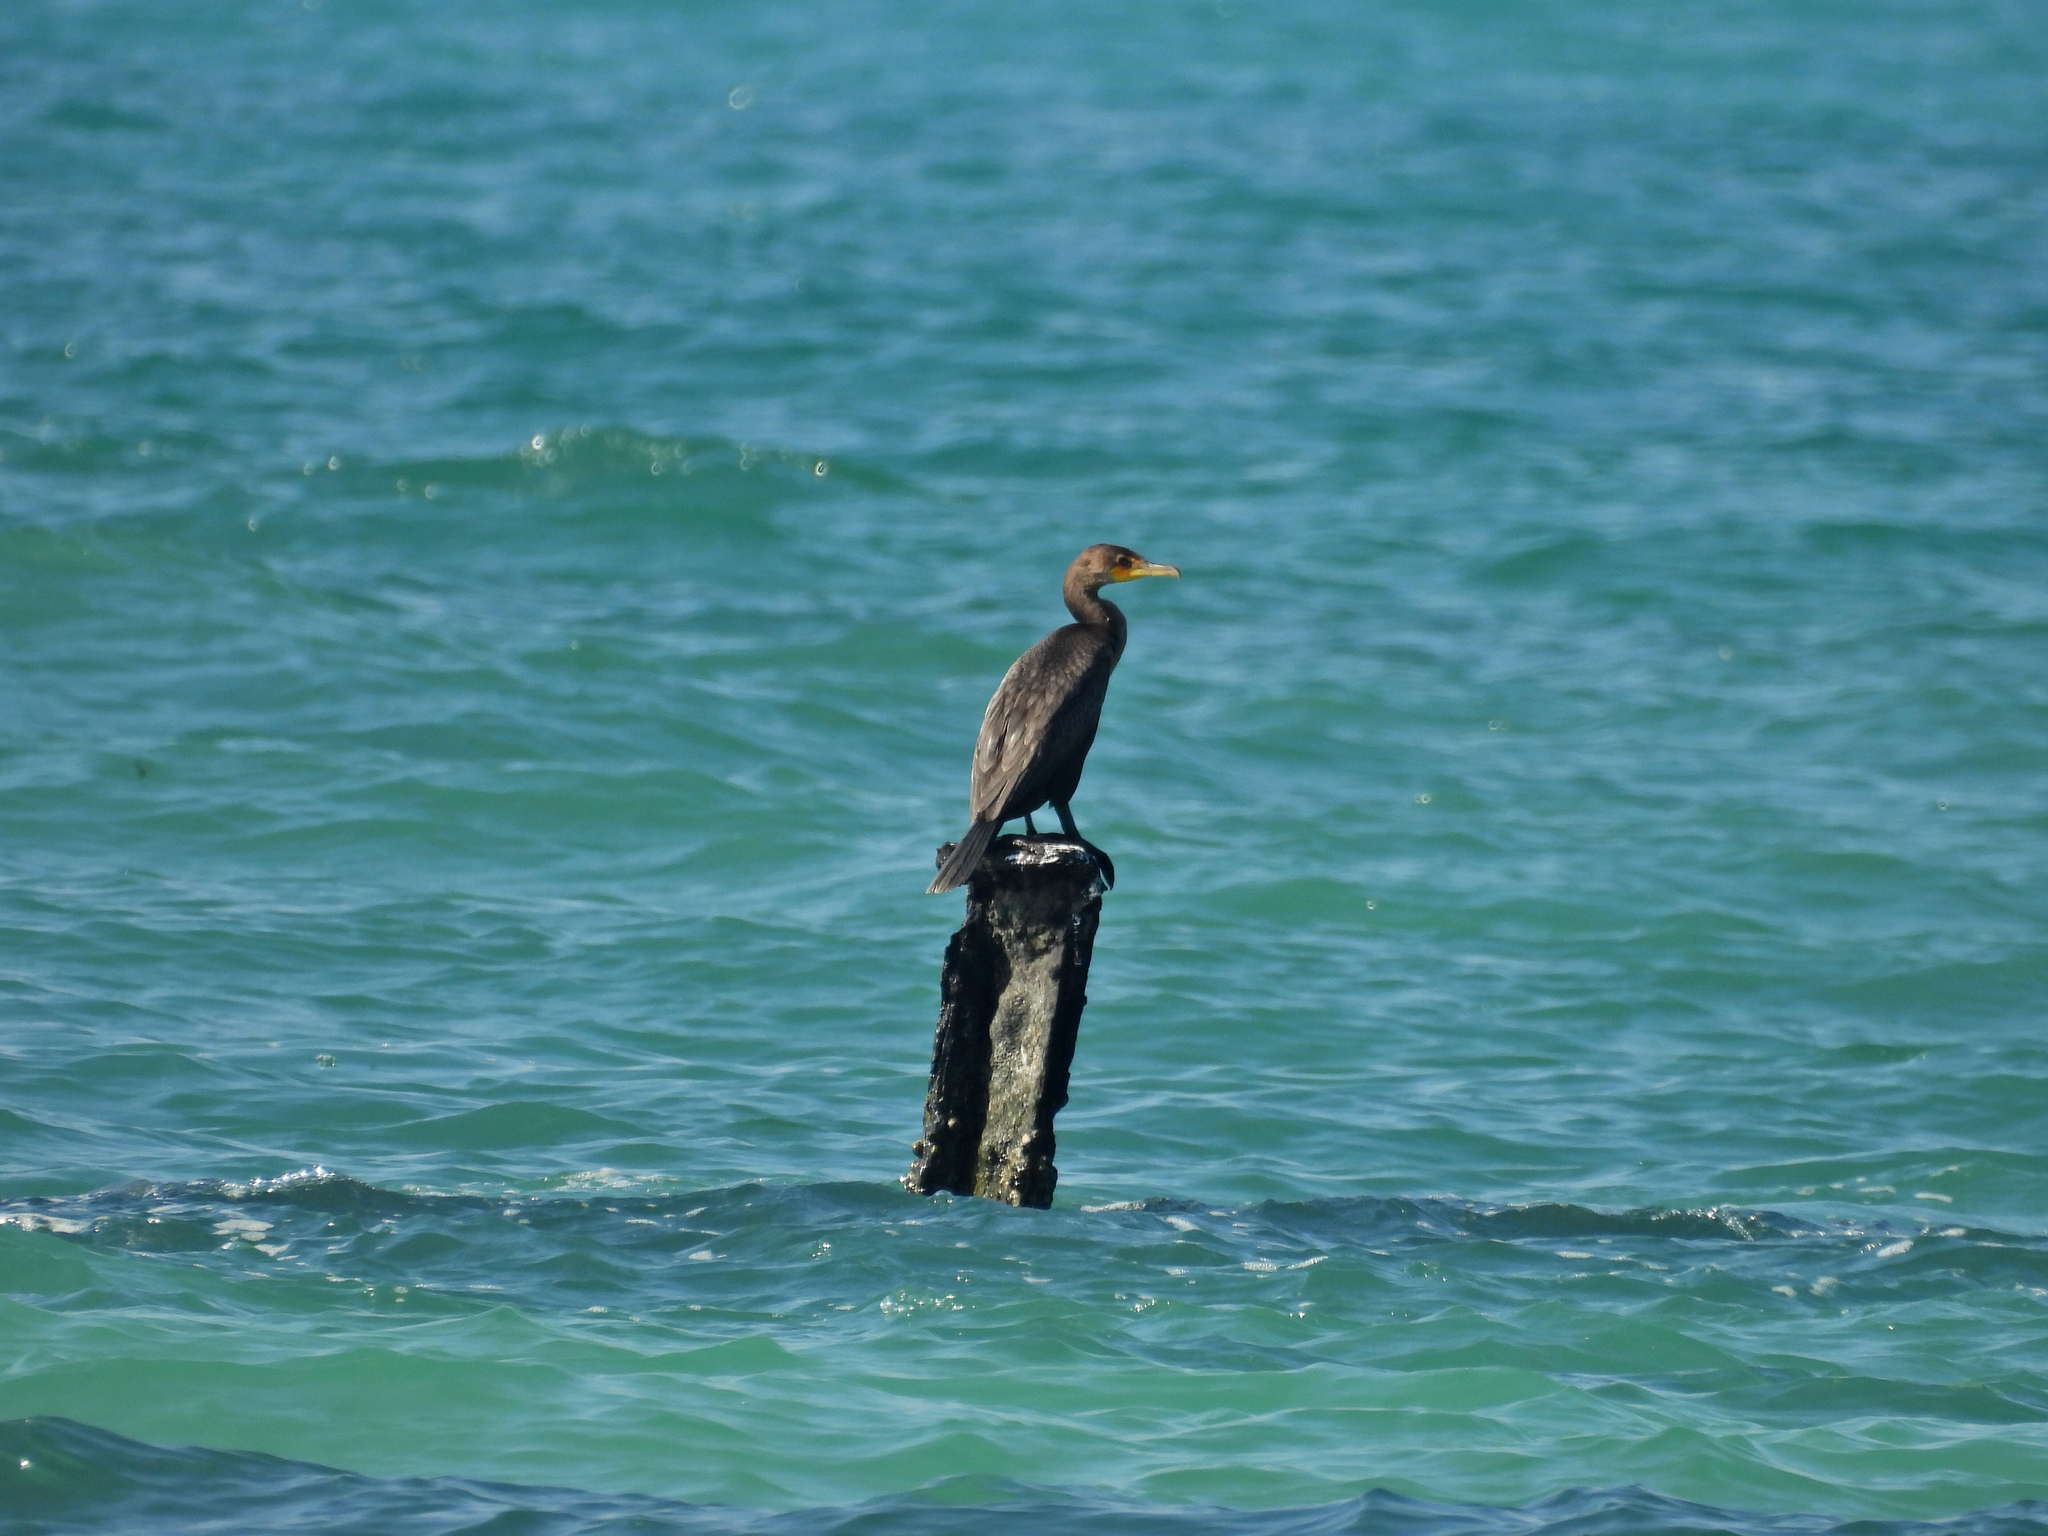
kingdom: Animalia
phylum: Chordata
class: Aves
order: Suliformes
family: Phalacrocoracidae
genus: Phalacrocorax
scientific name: Phalacrocorax auritus
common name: Double-crested cormorant
